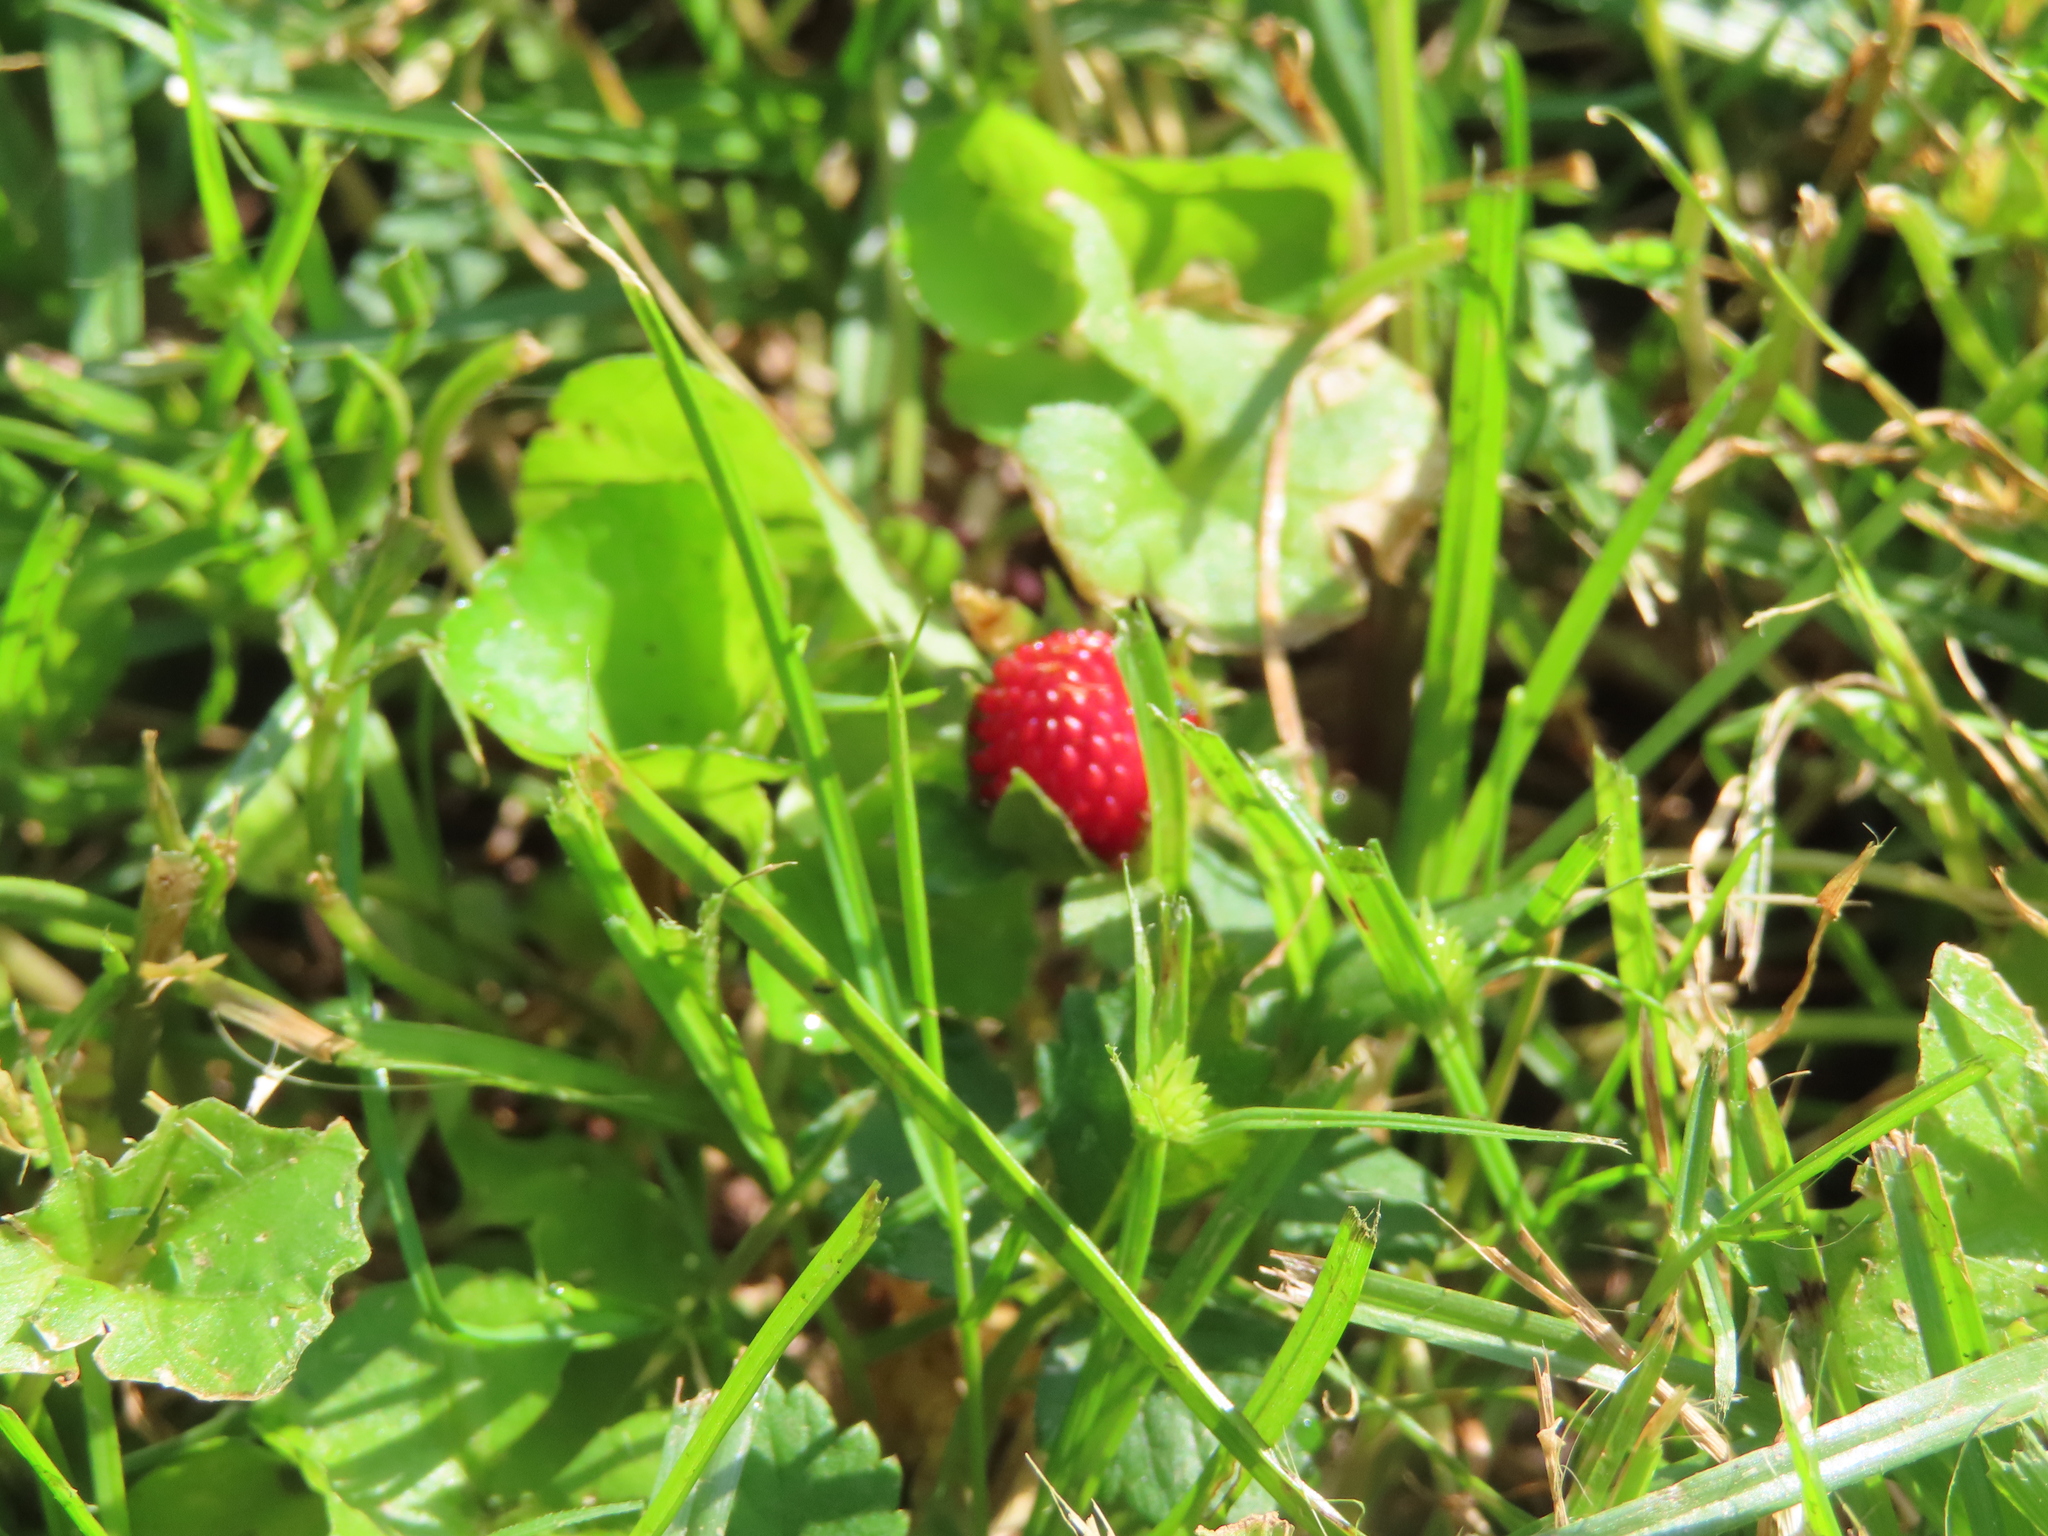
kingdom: Plantae
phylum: Tracheophyta
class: Magnoliopsida
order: Rosales
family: Rosaceae
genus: Potentilla
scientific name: Potentilla indica
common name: Yellow-flowered strawberry
